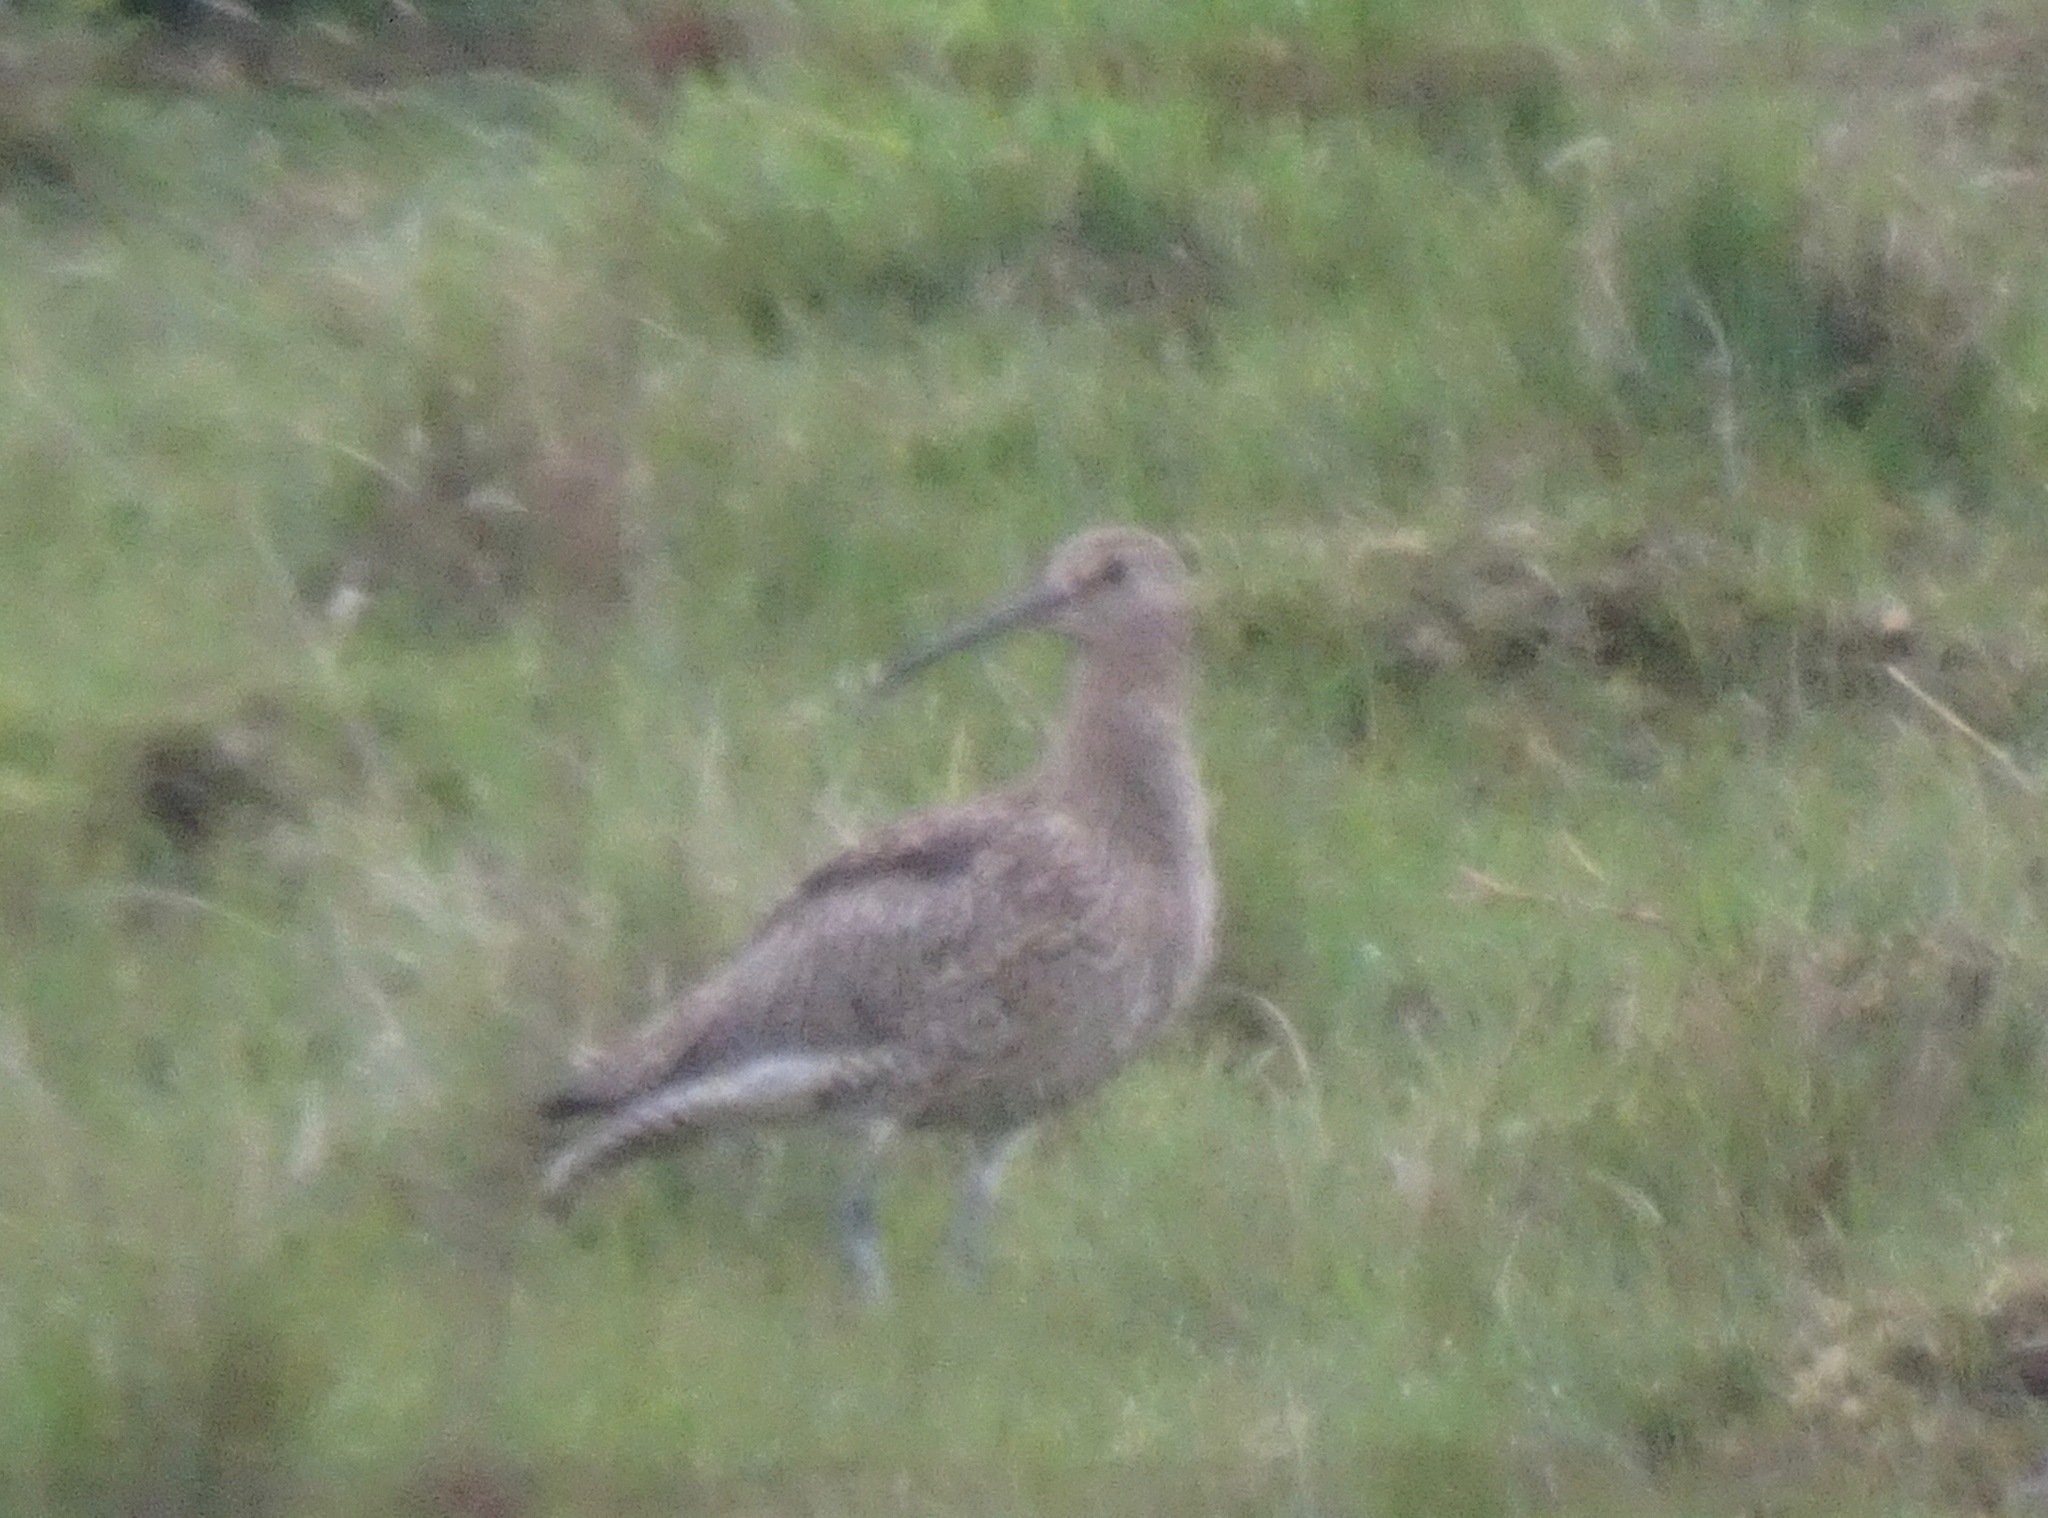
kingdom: Animalia
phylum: Chordata
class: Aves
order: Charadriiformes
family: Scolopacidae
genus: Numenius
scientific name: Numenius arquata
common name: Eurasian curlew
